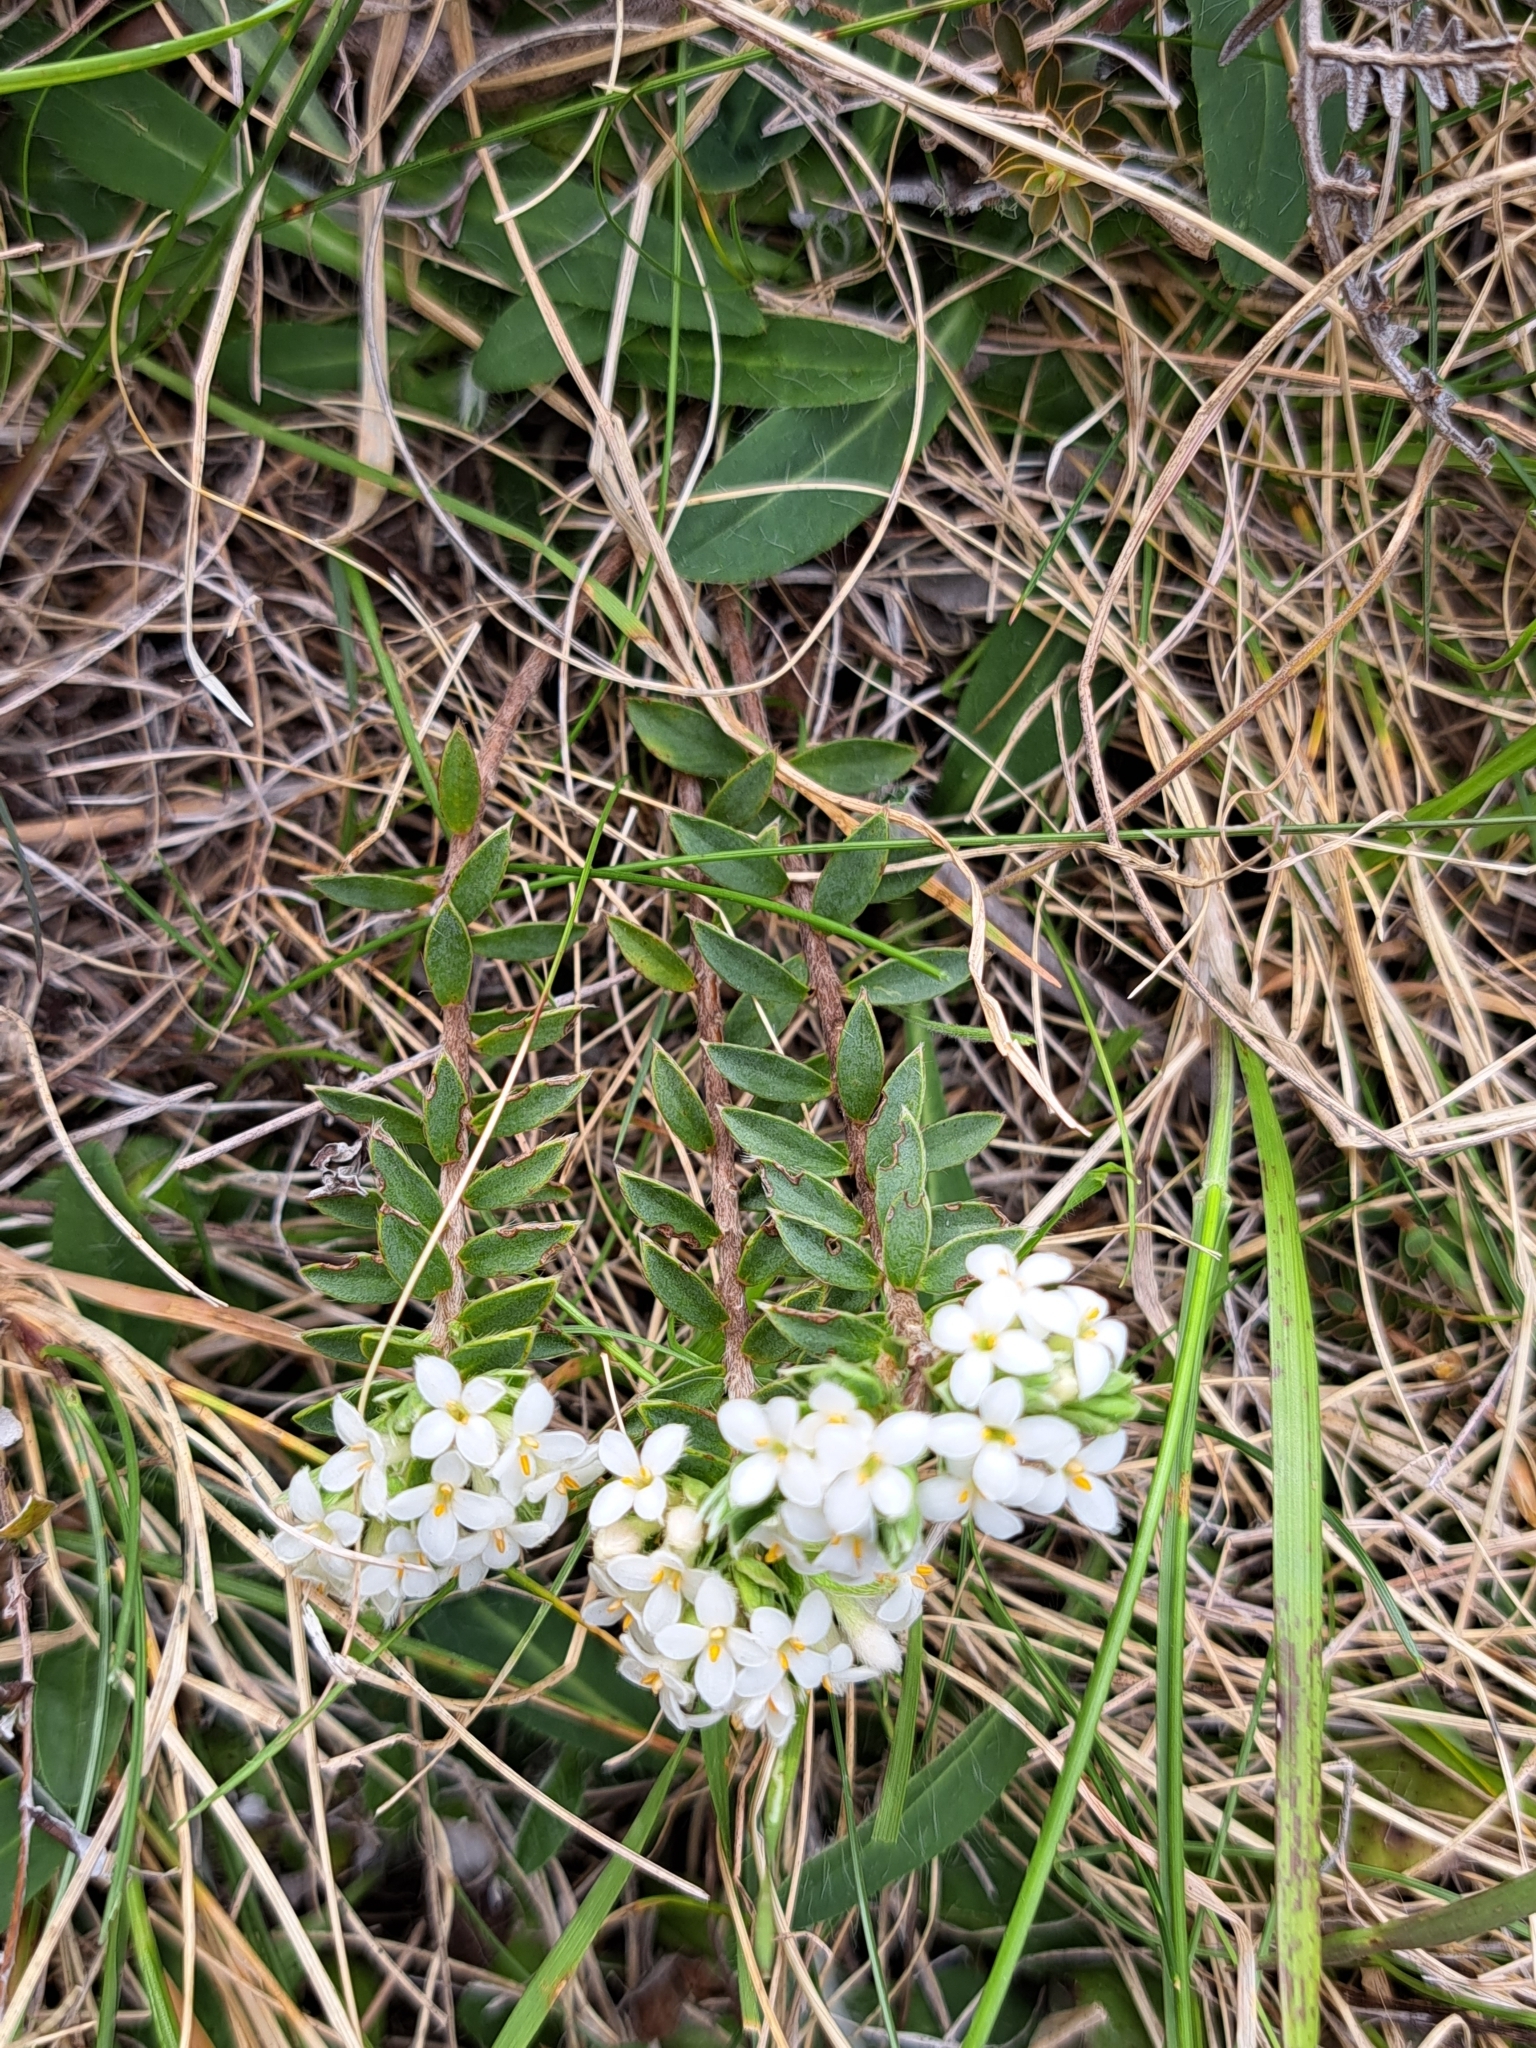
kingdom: Plantae
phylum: Tracheophyta
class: Magnoliopsida
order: Malvales
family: Thymelaeaceae
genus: Pimelea
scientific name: Pimelea oreophila
